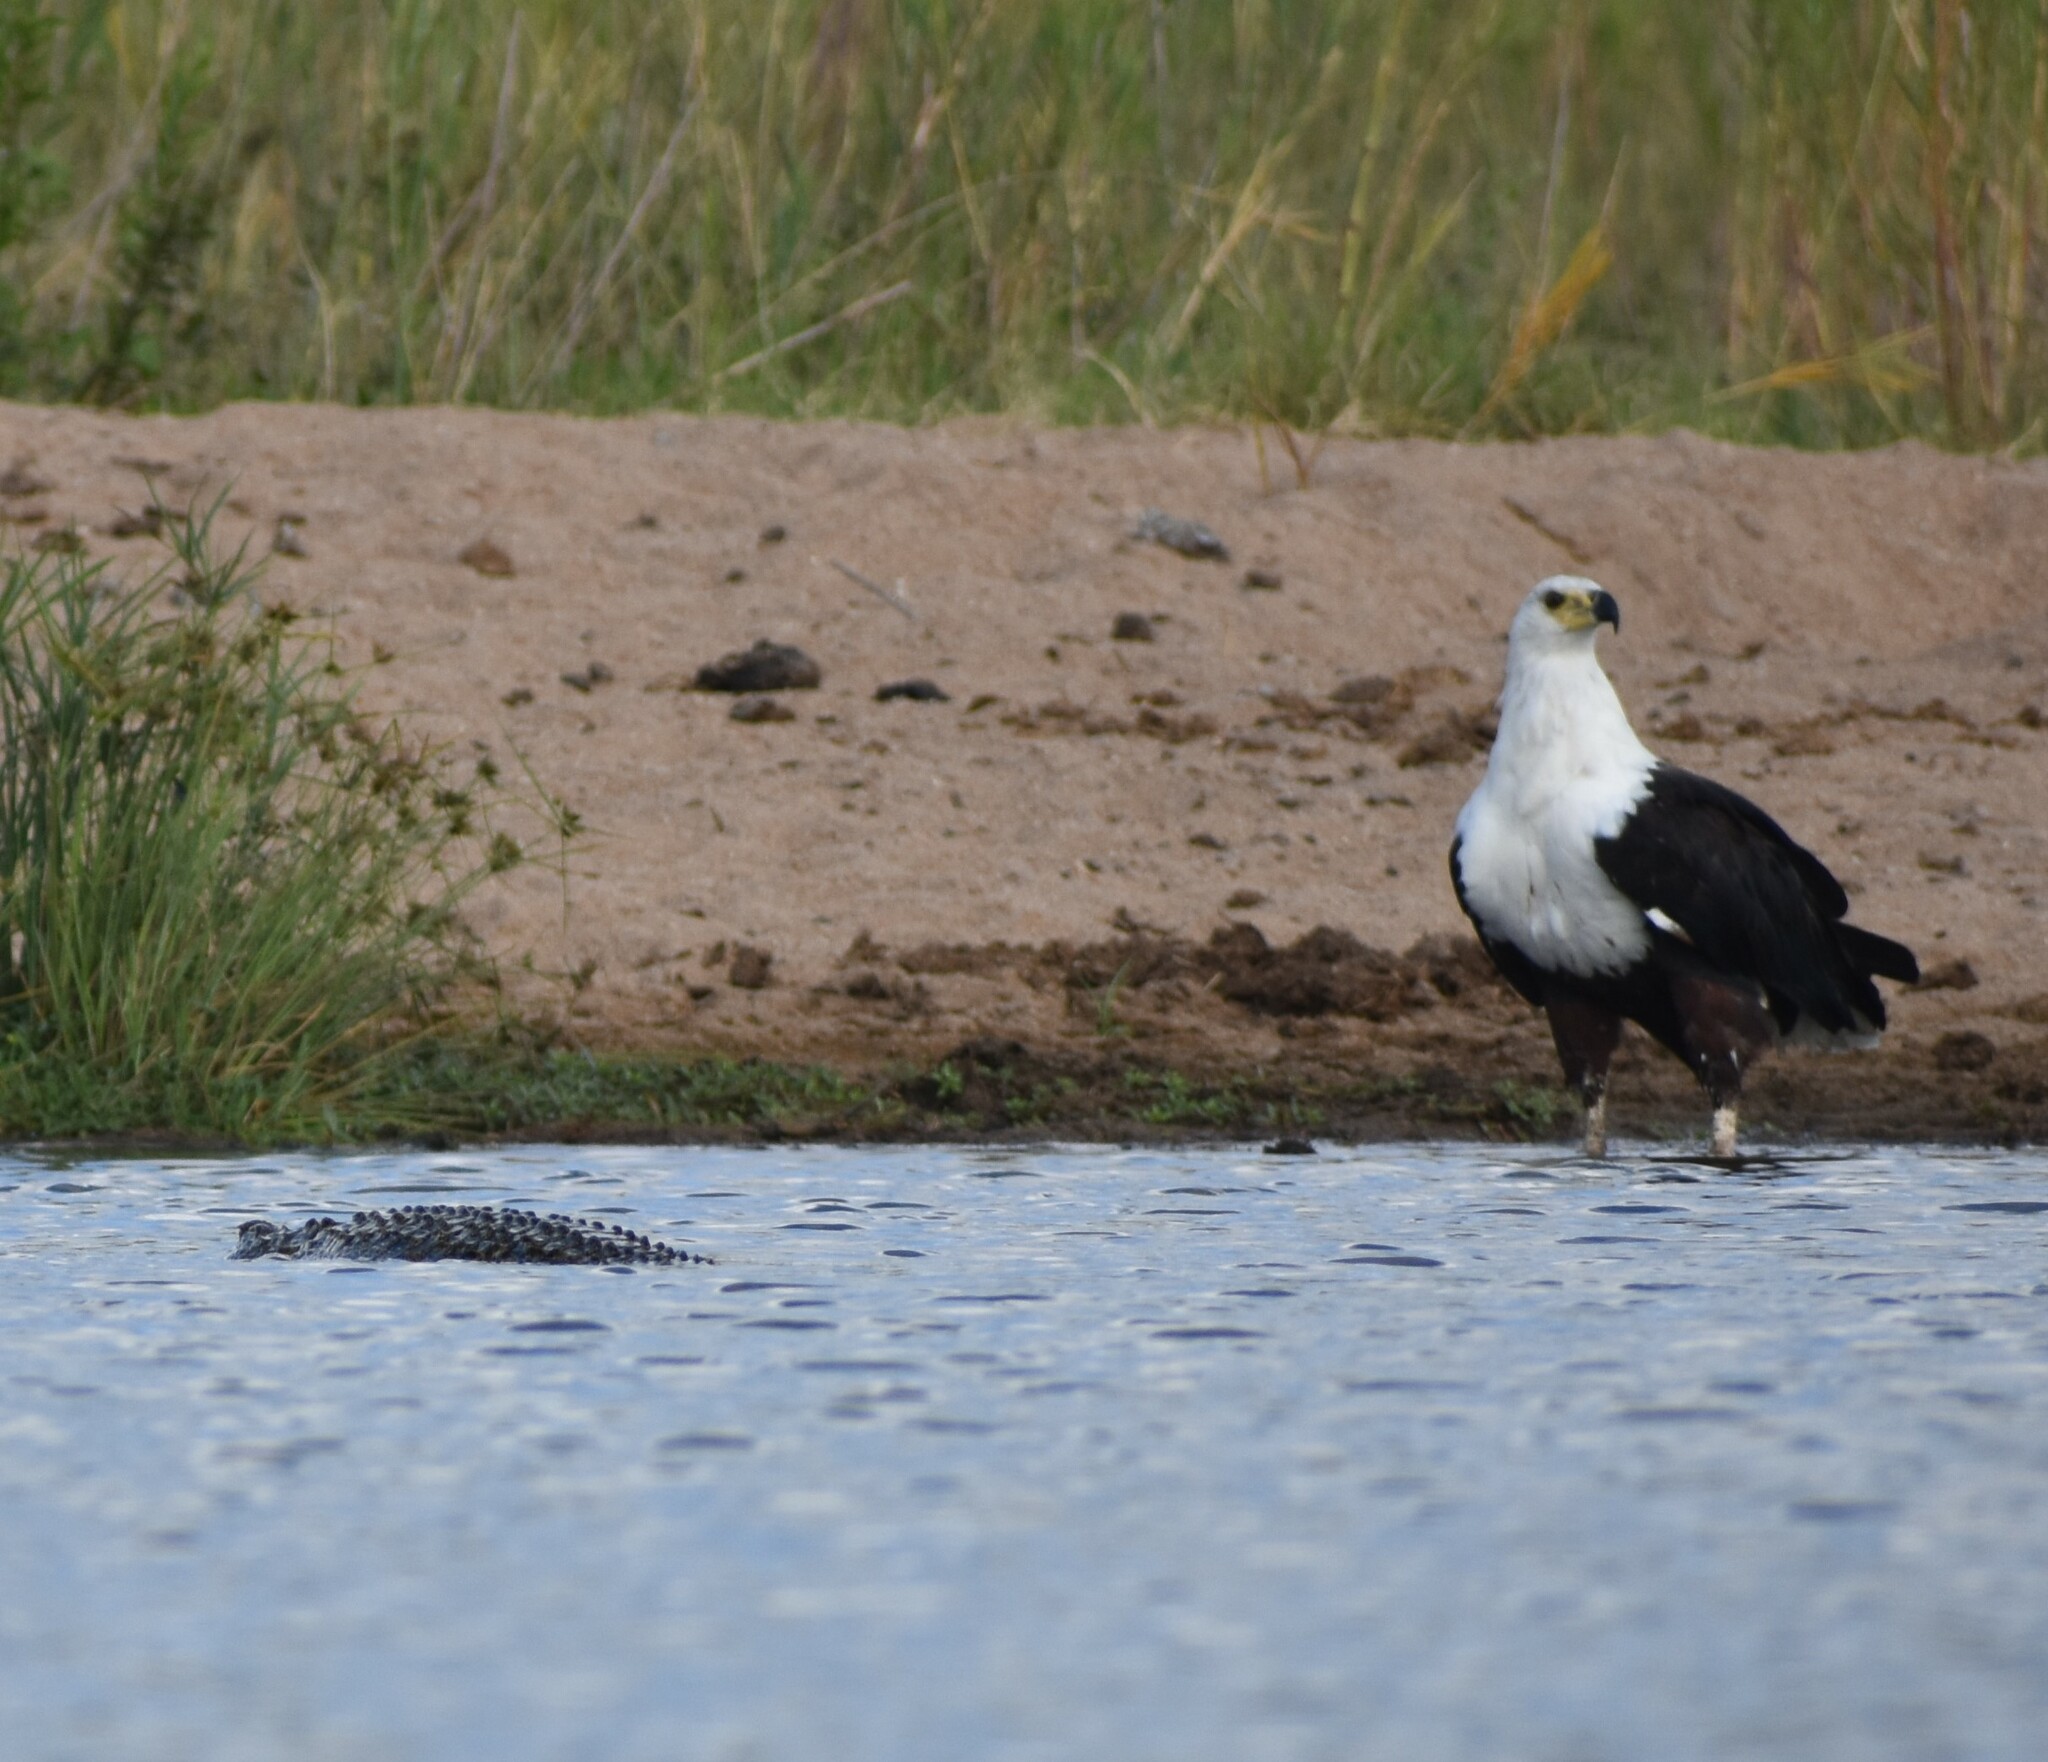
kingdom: Animalia
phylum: Chordata
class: Aves
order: Accipitriformes
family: Accipitridae
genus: Haliaeetus
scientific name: Haliaeetus vocifer
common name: African fish eagle
